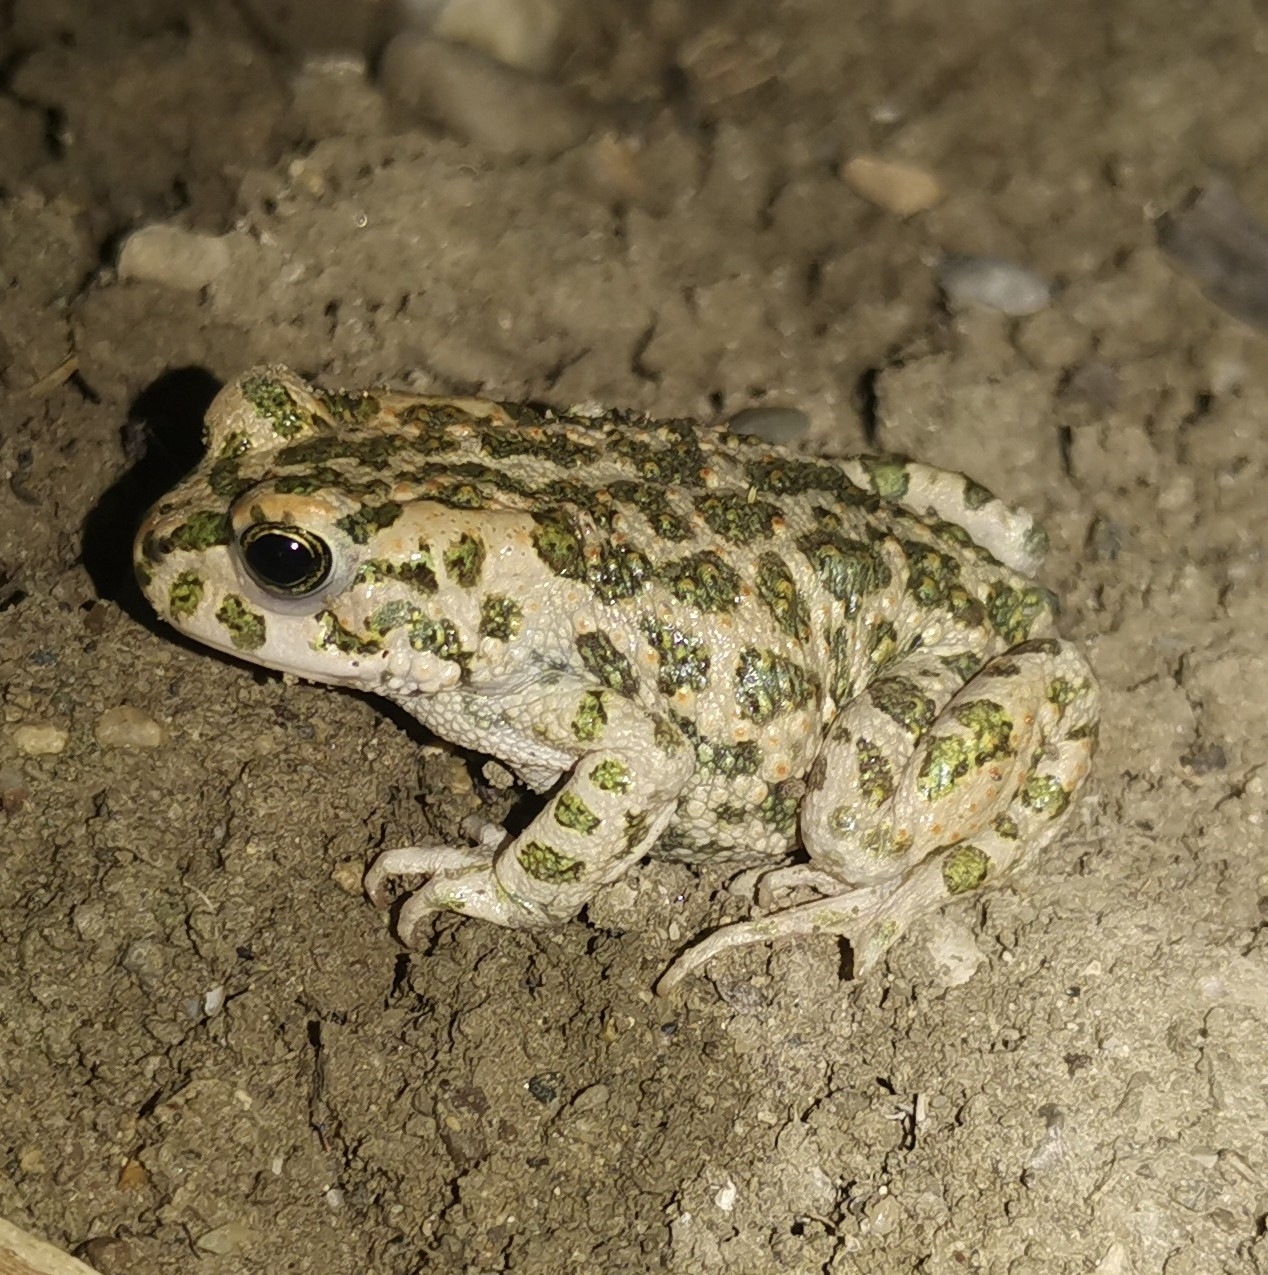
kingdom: Animalia
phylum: Chordata
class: Amphibia
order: Anura
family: Bufonidae
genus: Bufotes
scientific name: Bufotes viridis
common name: European green toad
